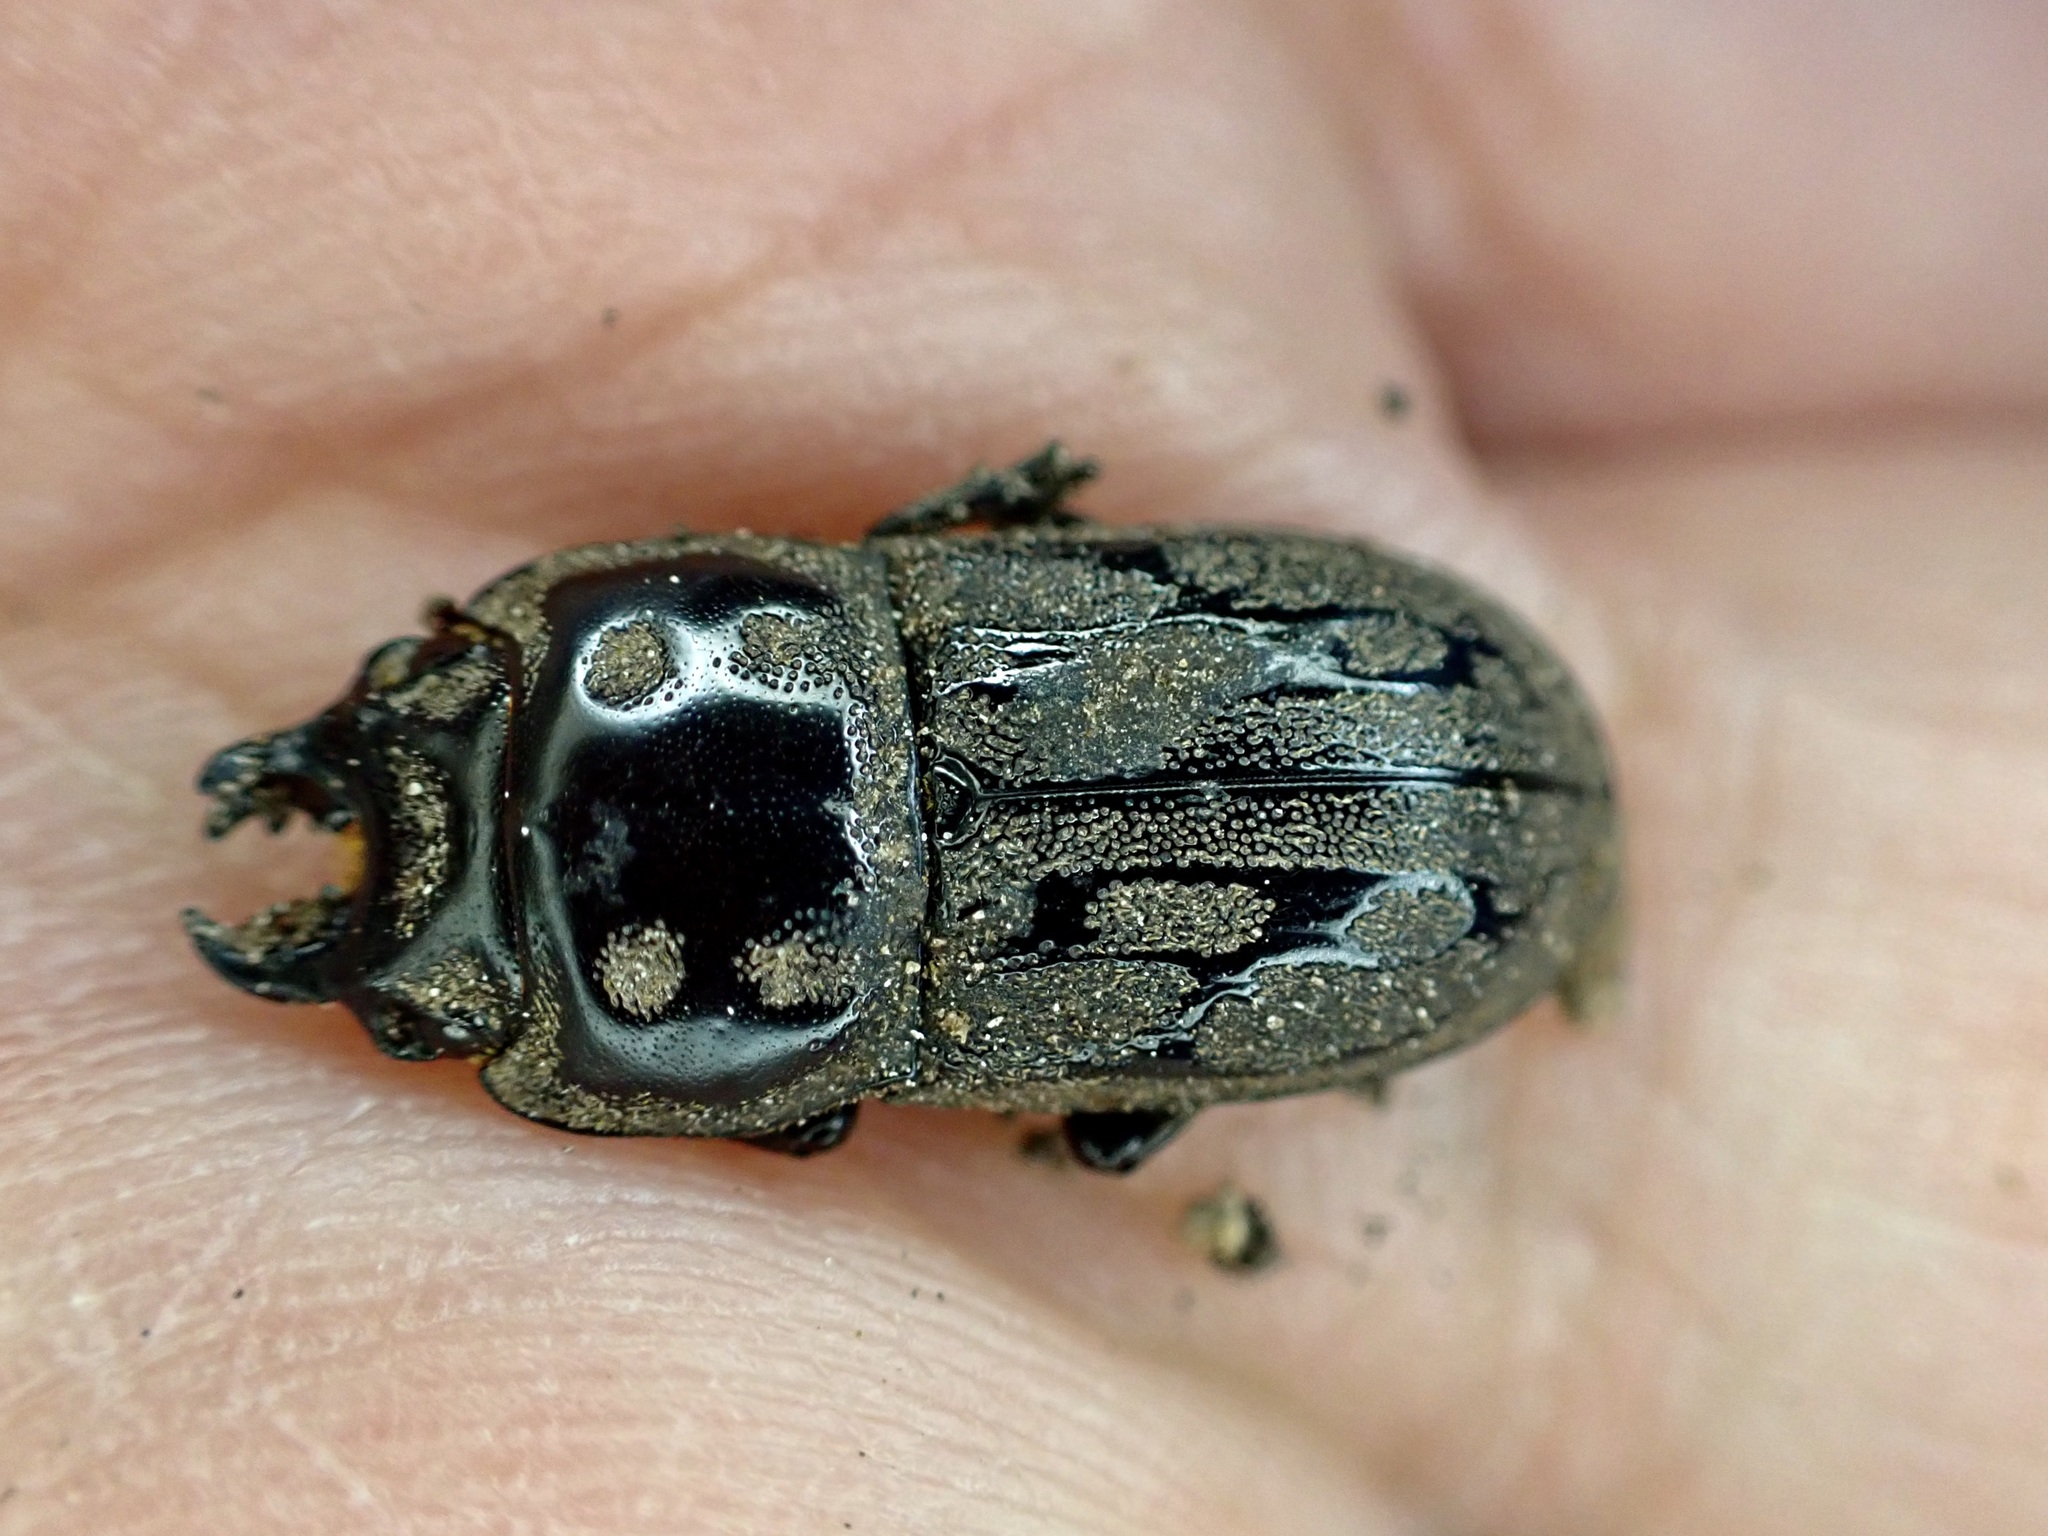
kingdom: Animalia
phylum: Arthropoda
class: Insecta
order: Coleoptera
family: Lucanidae
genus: Paralissotes
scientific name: Paralissotes reticulatus
